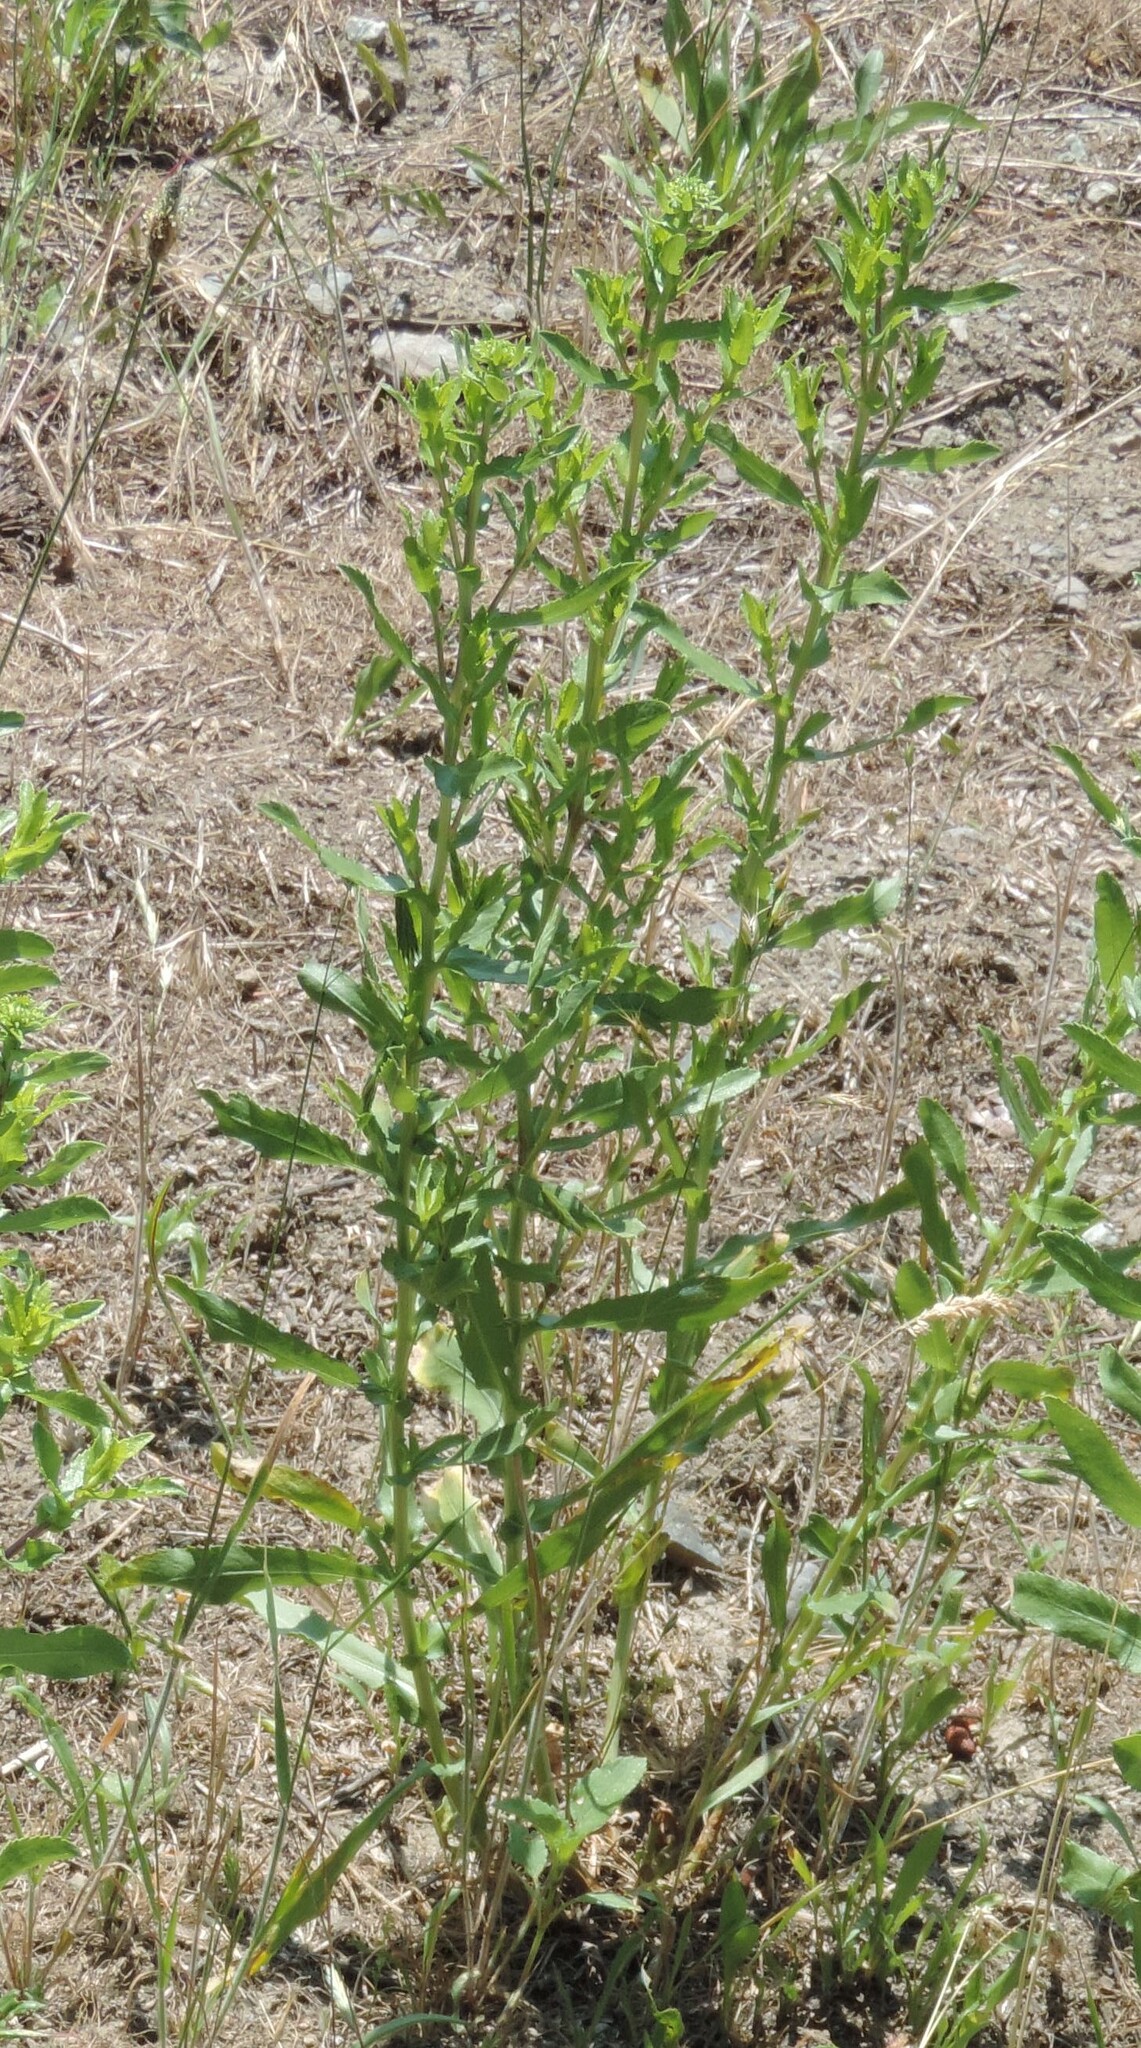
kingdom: Plantae
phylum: Tracheophyta
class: Magnoliopsida
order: Asterales
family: Asteraceae
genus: Grindelia
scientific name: Grindelia squarrosa
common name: Curly-cup gumweed
